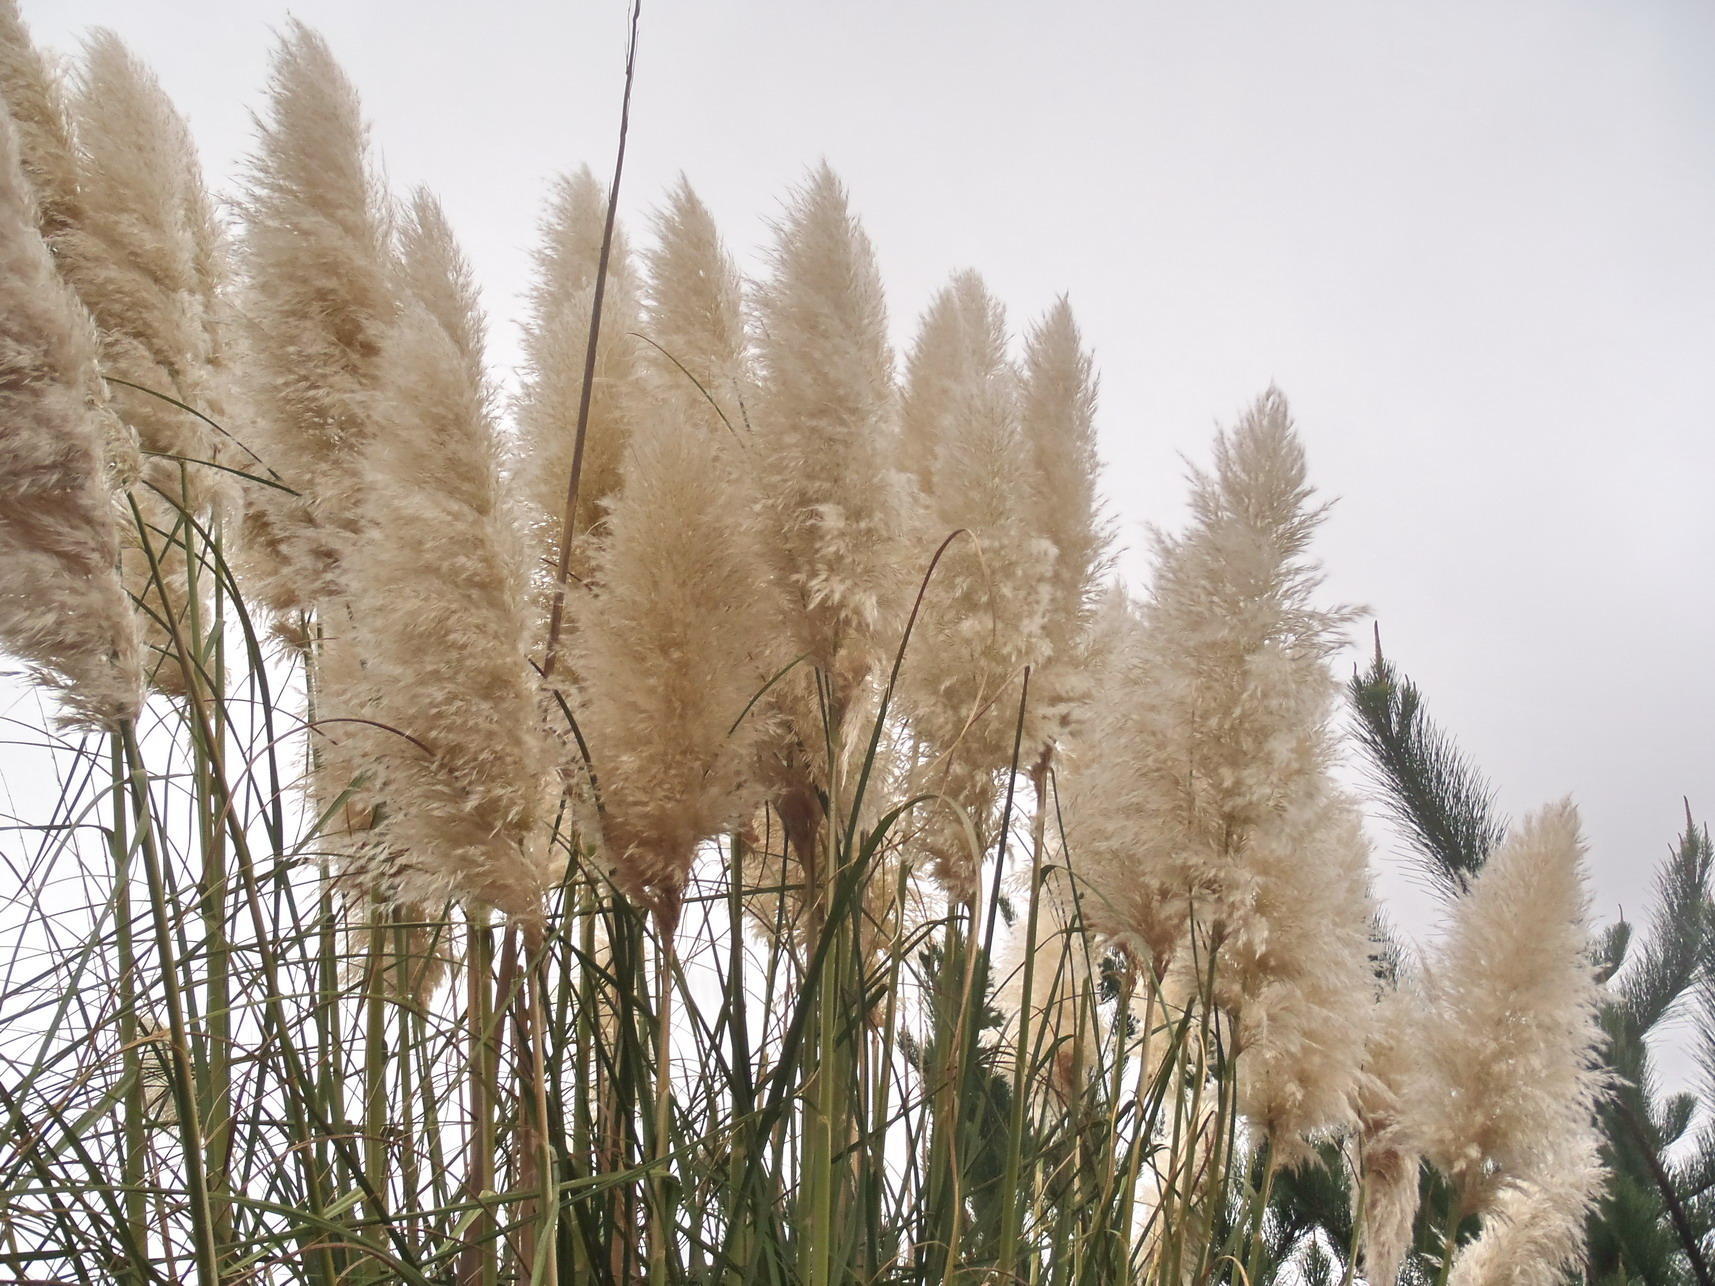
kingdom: Plantae
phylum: Tracheophyta
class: Liliopsida
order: Poales
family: Poaceae
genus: Cortaderia
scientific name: Cortaderia selloana
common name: Uruguayan pampas grass
